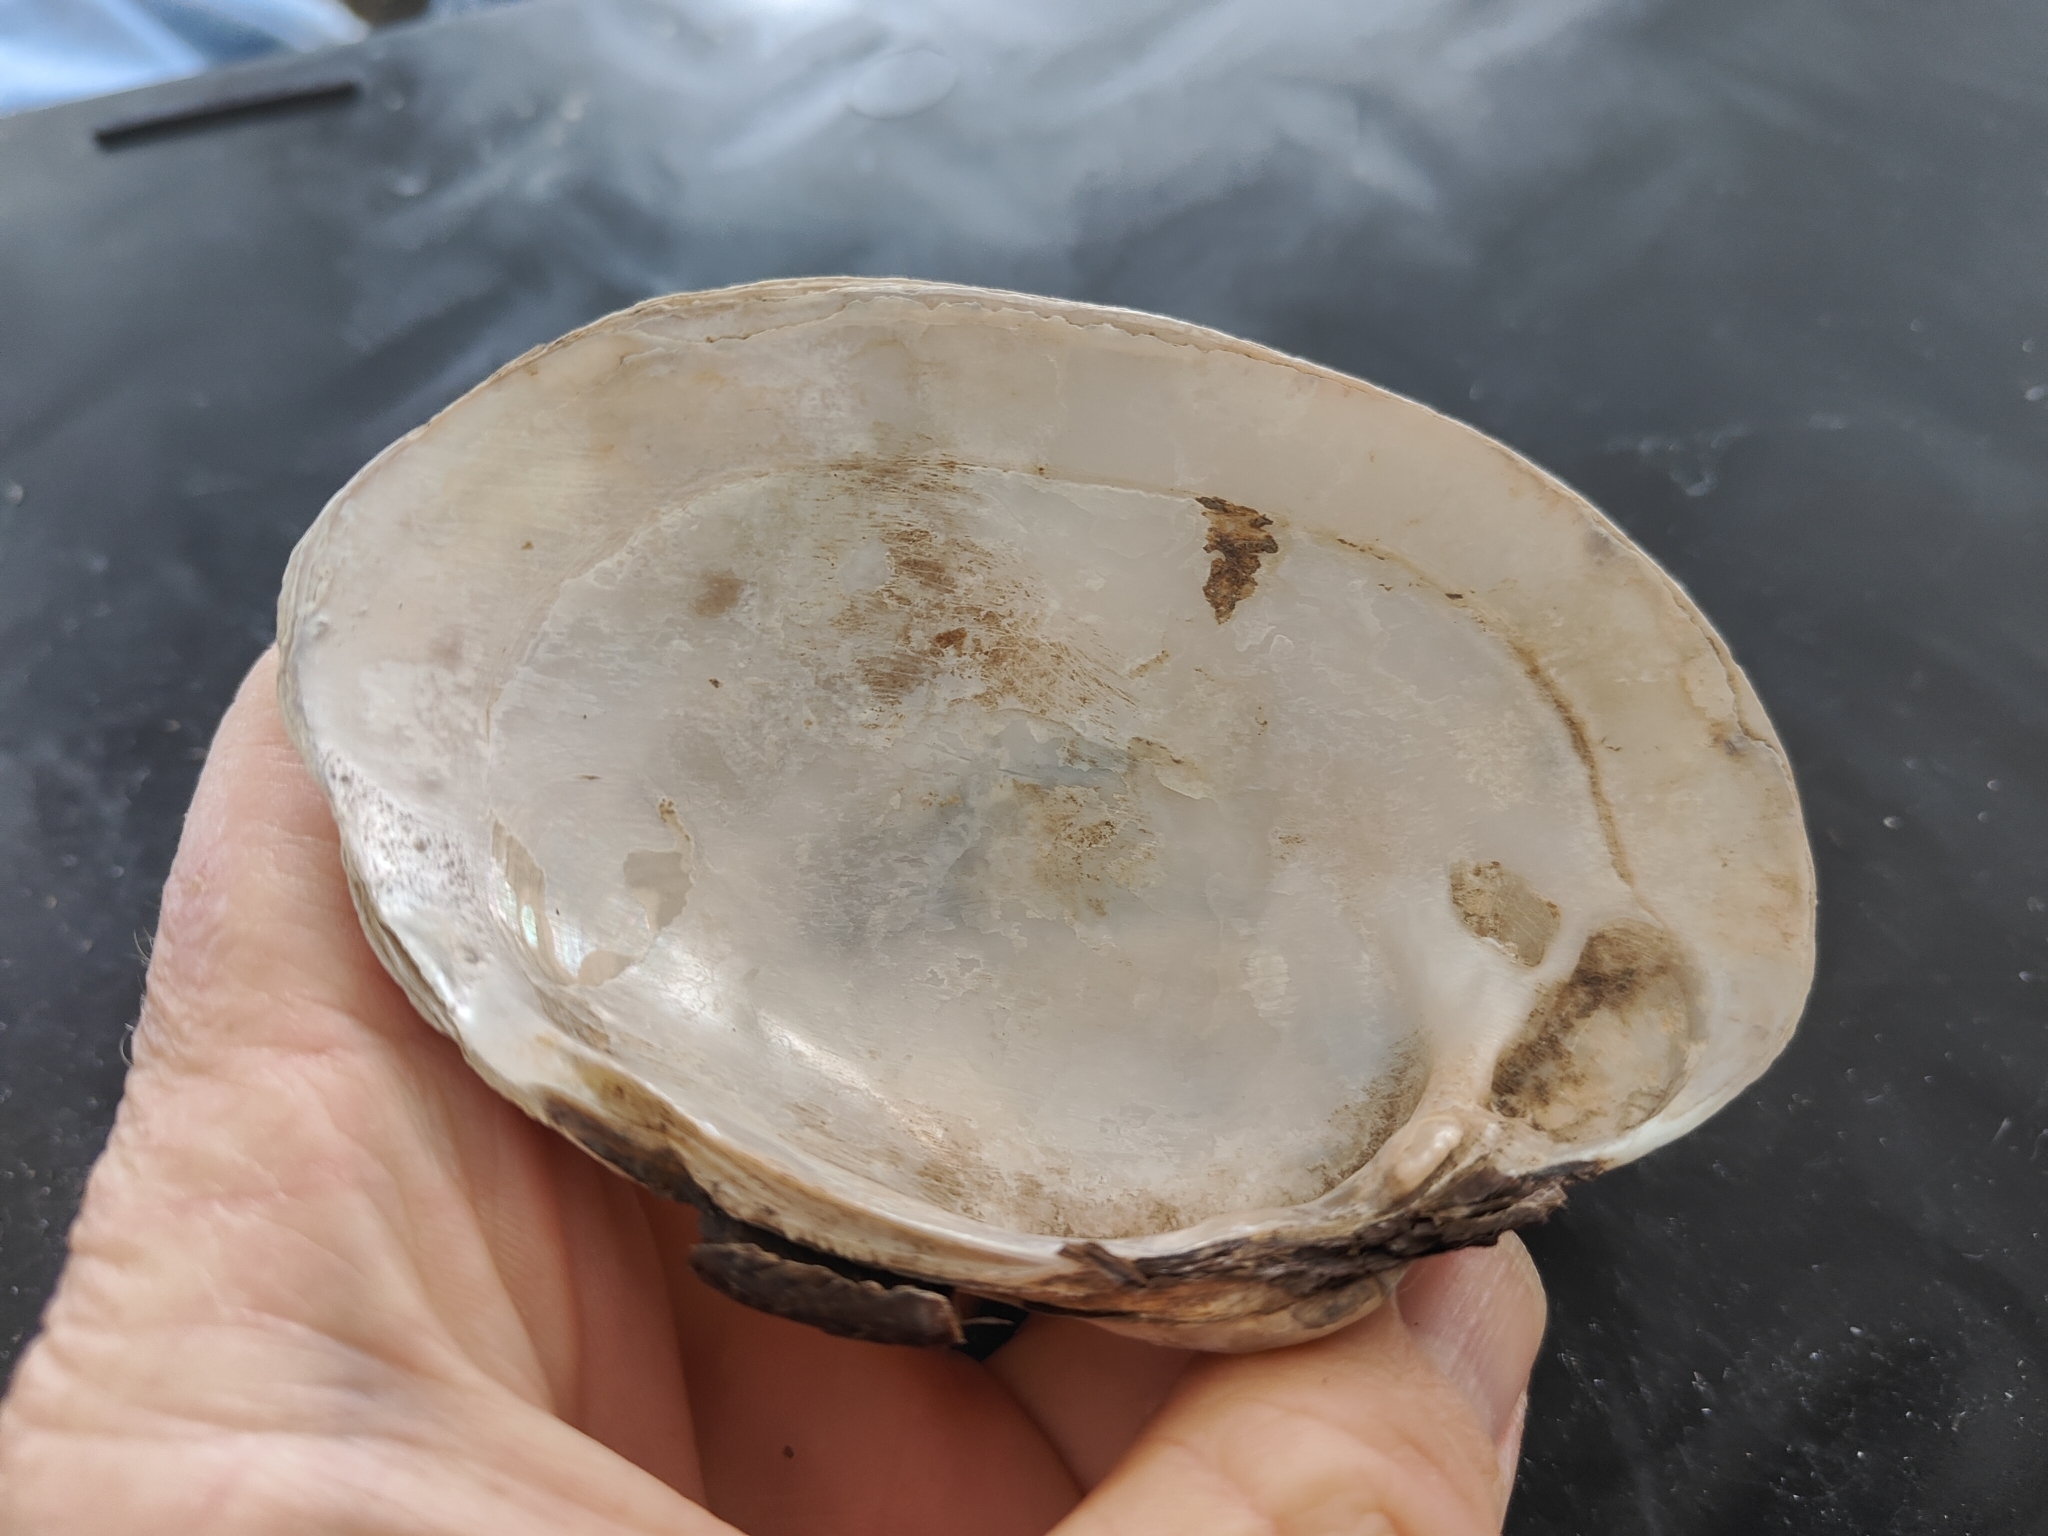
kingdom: Animalia
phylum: Mollusca
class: Bivalvia
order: Unionida
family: Unionidae
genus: Lampsilis
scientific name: Lampsilis cardium
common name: Plain pocketbook
